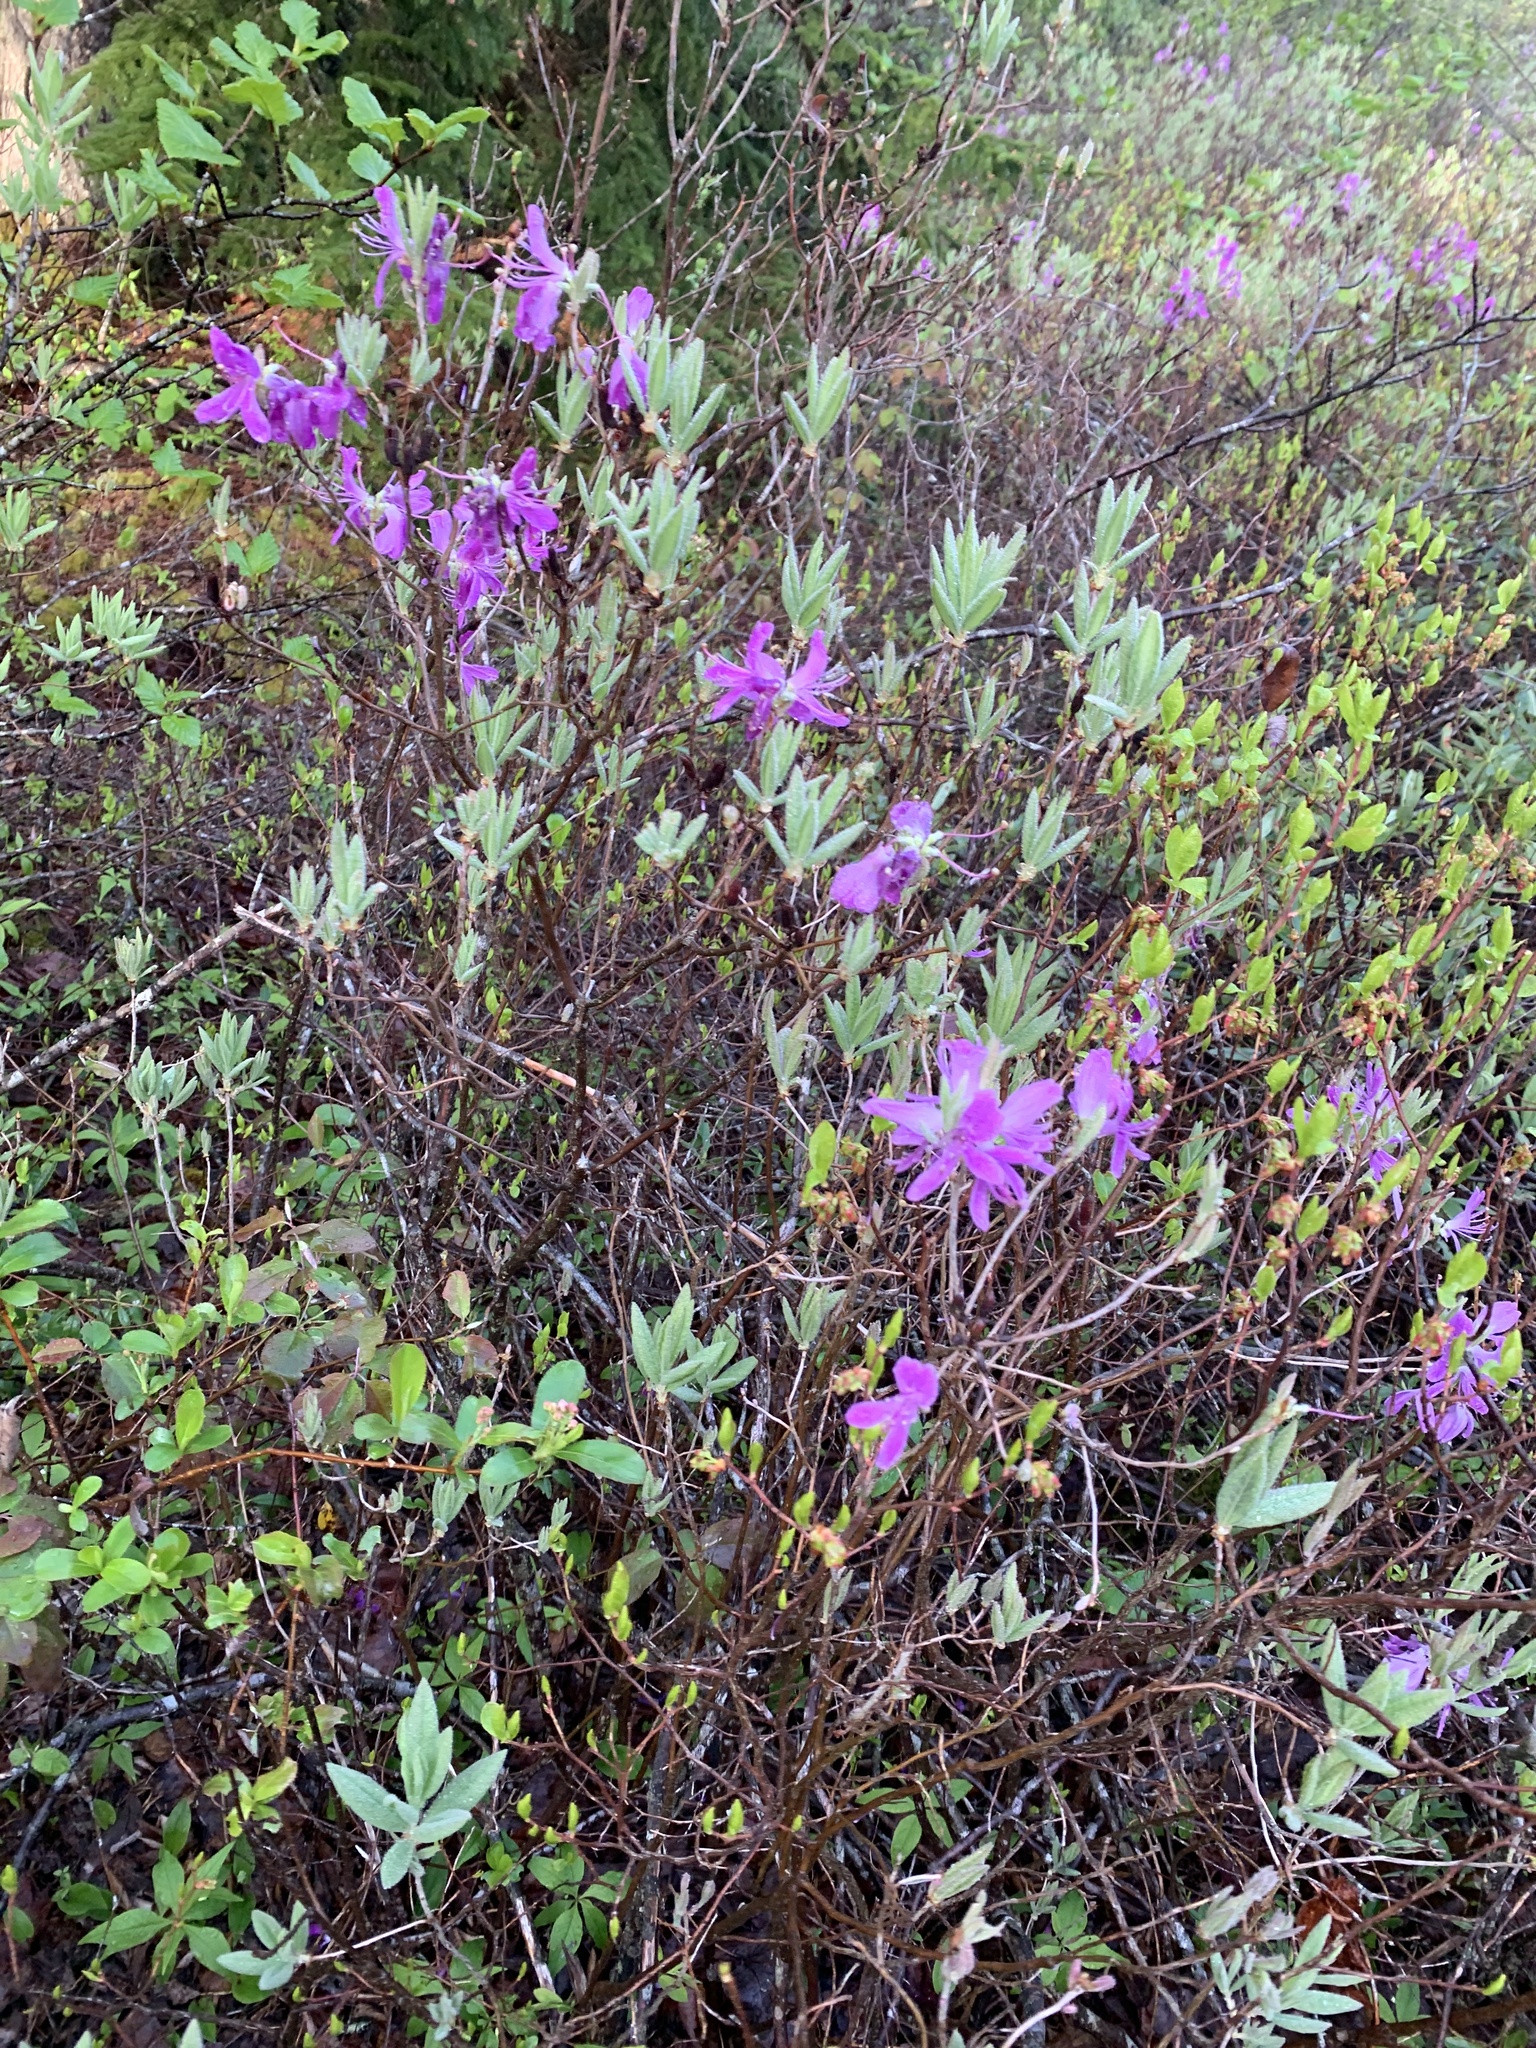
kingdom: Plantae
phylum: Tracheophyta
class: Magnoliopsida
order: Ericales
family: Ericaceae
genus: Rhododendron
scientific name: Rhododendron canadense
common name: Rhodora
